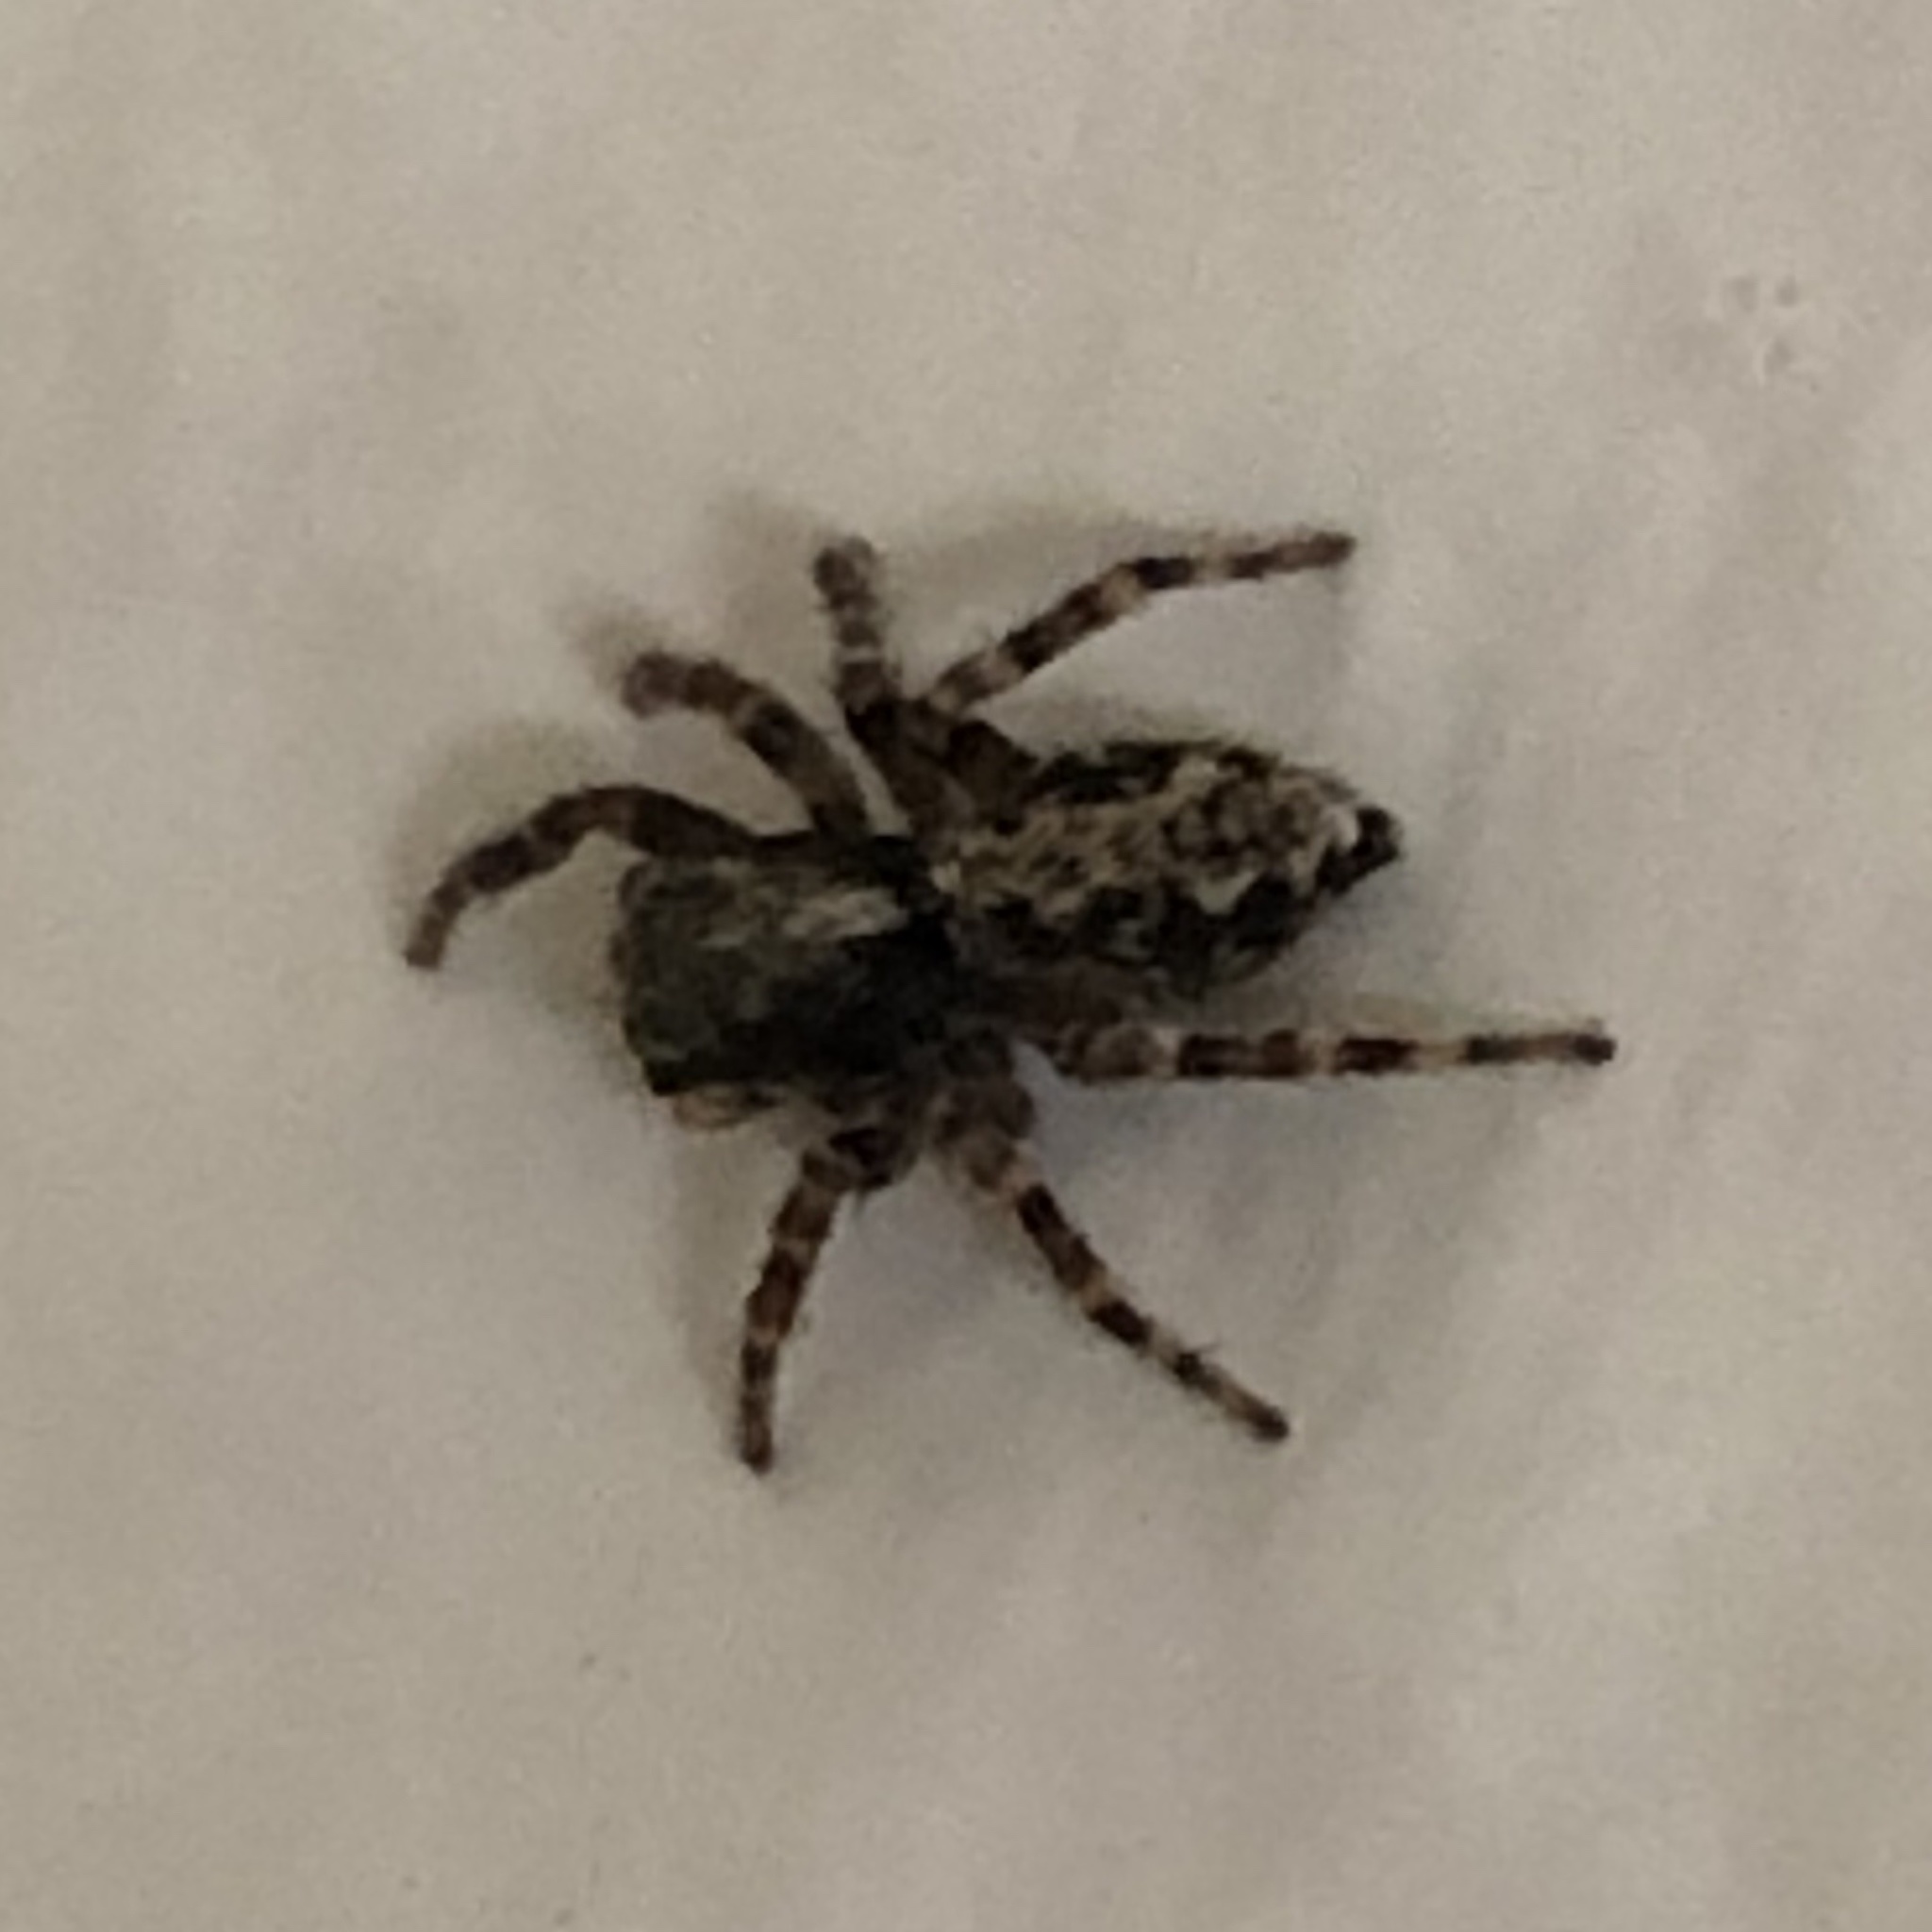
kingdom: Animalia
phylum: Arthropoda
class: Arachnida
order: Araneae
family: Salticidae
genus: Pseudeuophrys
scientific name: Pseudeuophrys lanigera
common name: Jumping spider
